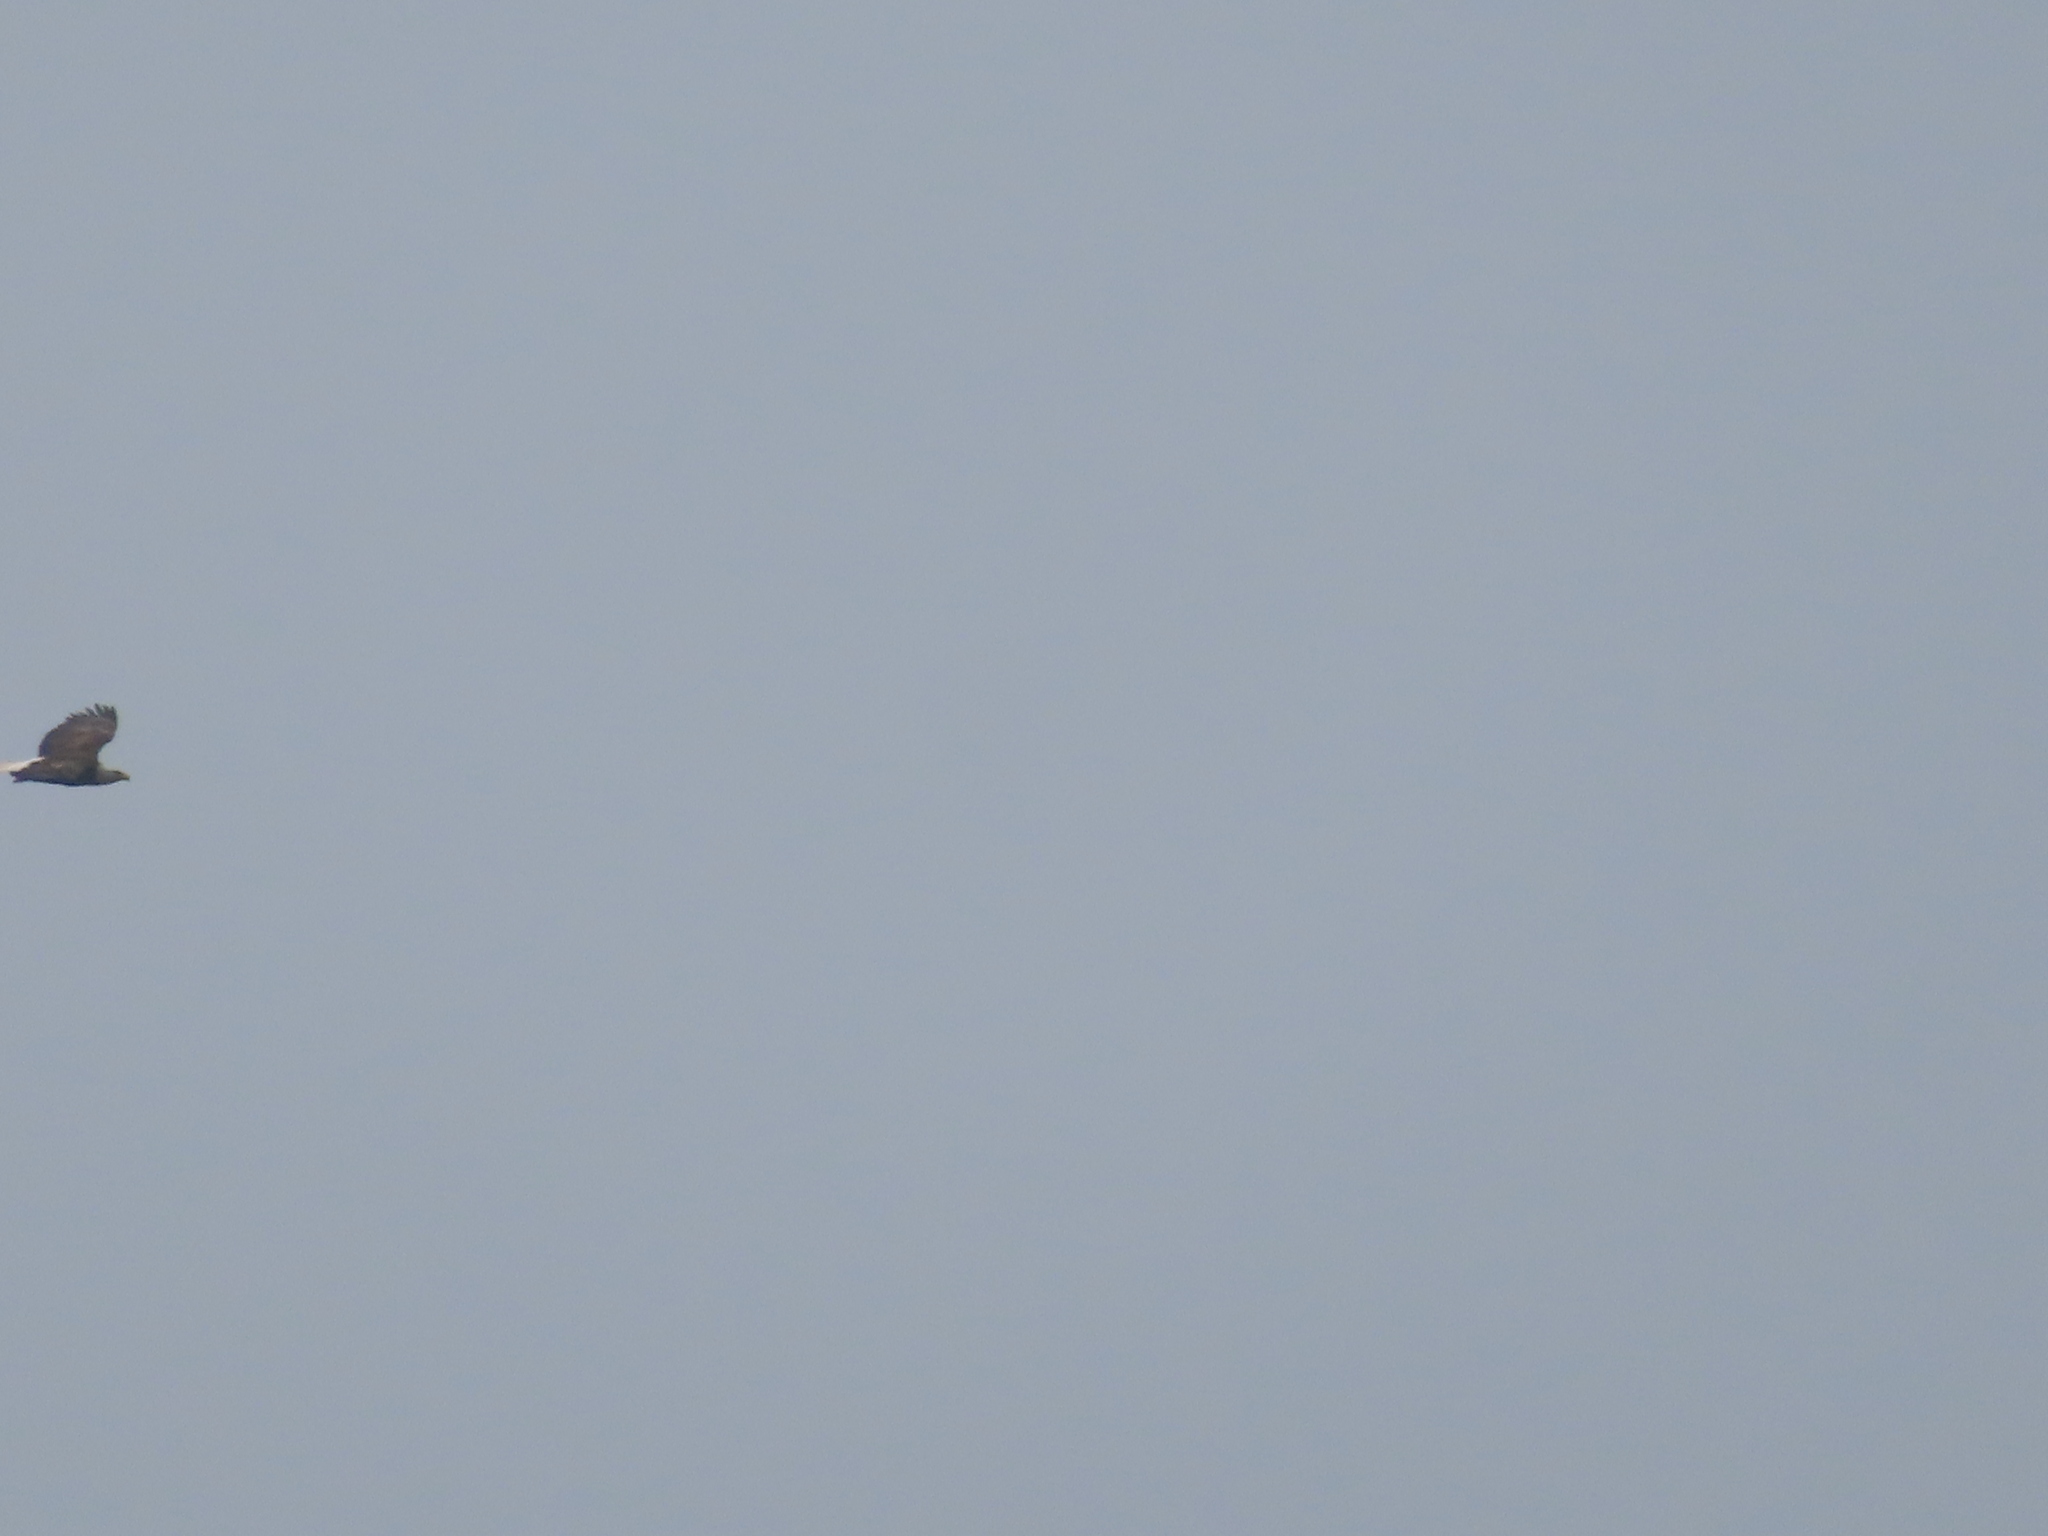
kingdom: Animalia
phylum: Chordata
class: Aves
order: Accipitriformes
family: Accipitridae
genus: Haliaeetus
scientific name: Haliaeetus leucocephalus
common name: Bald eagle
